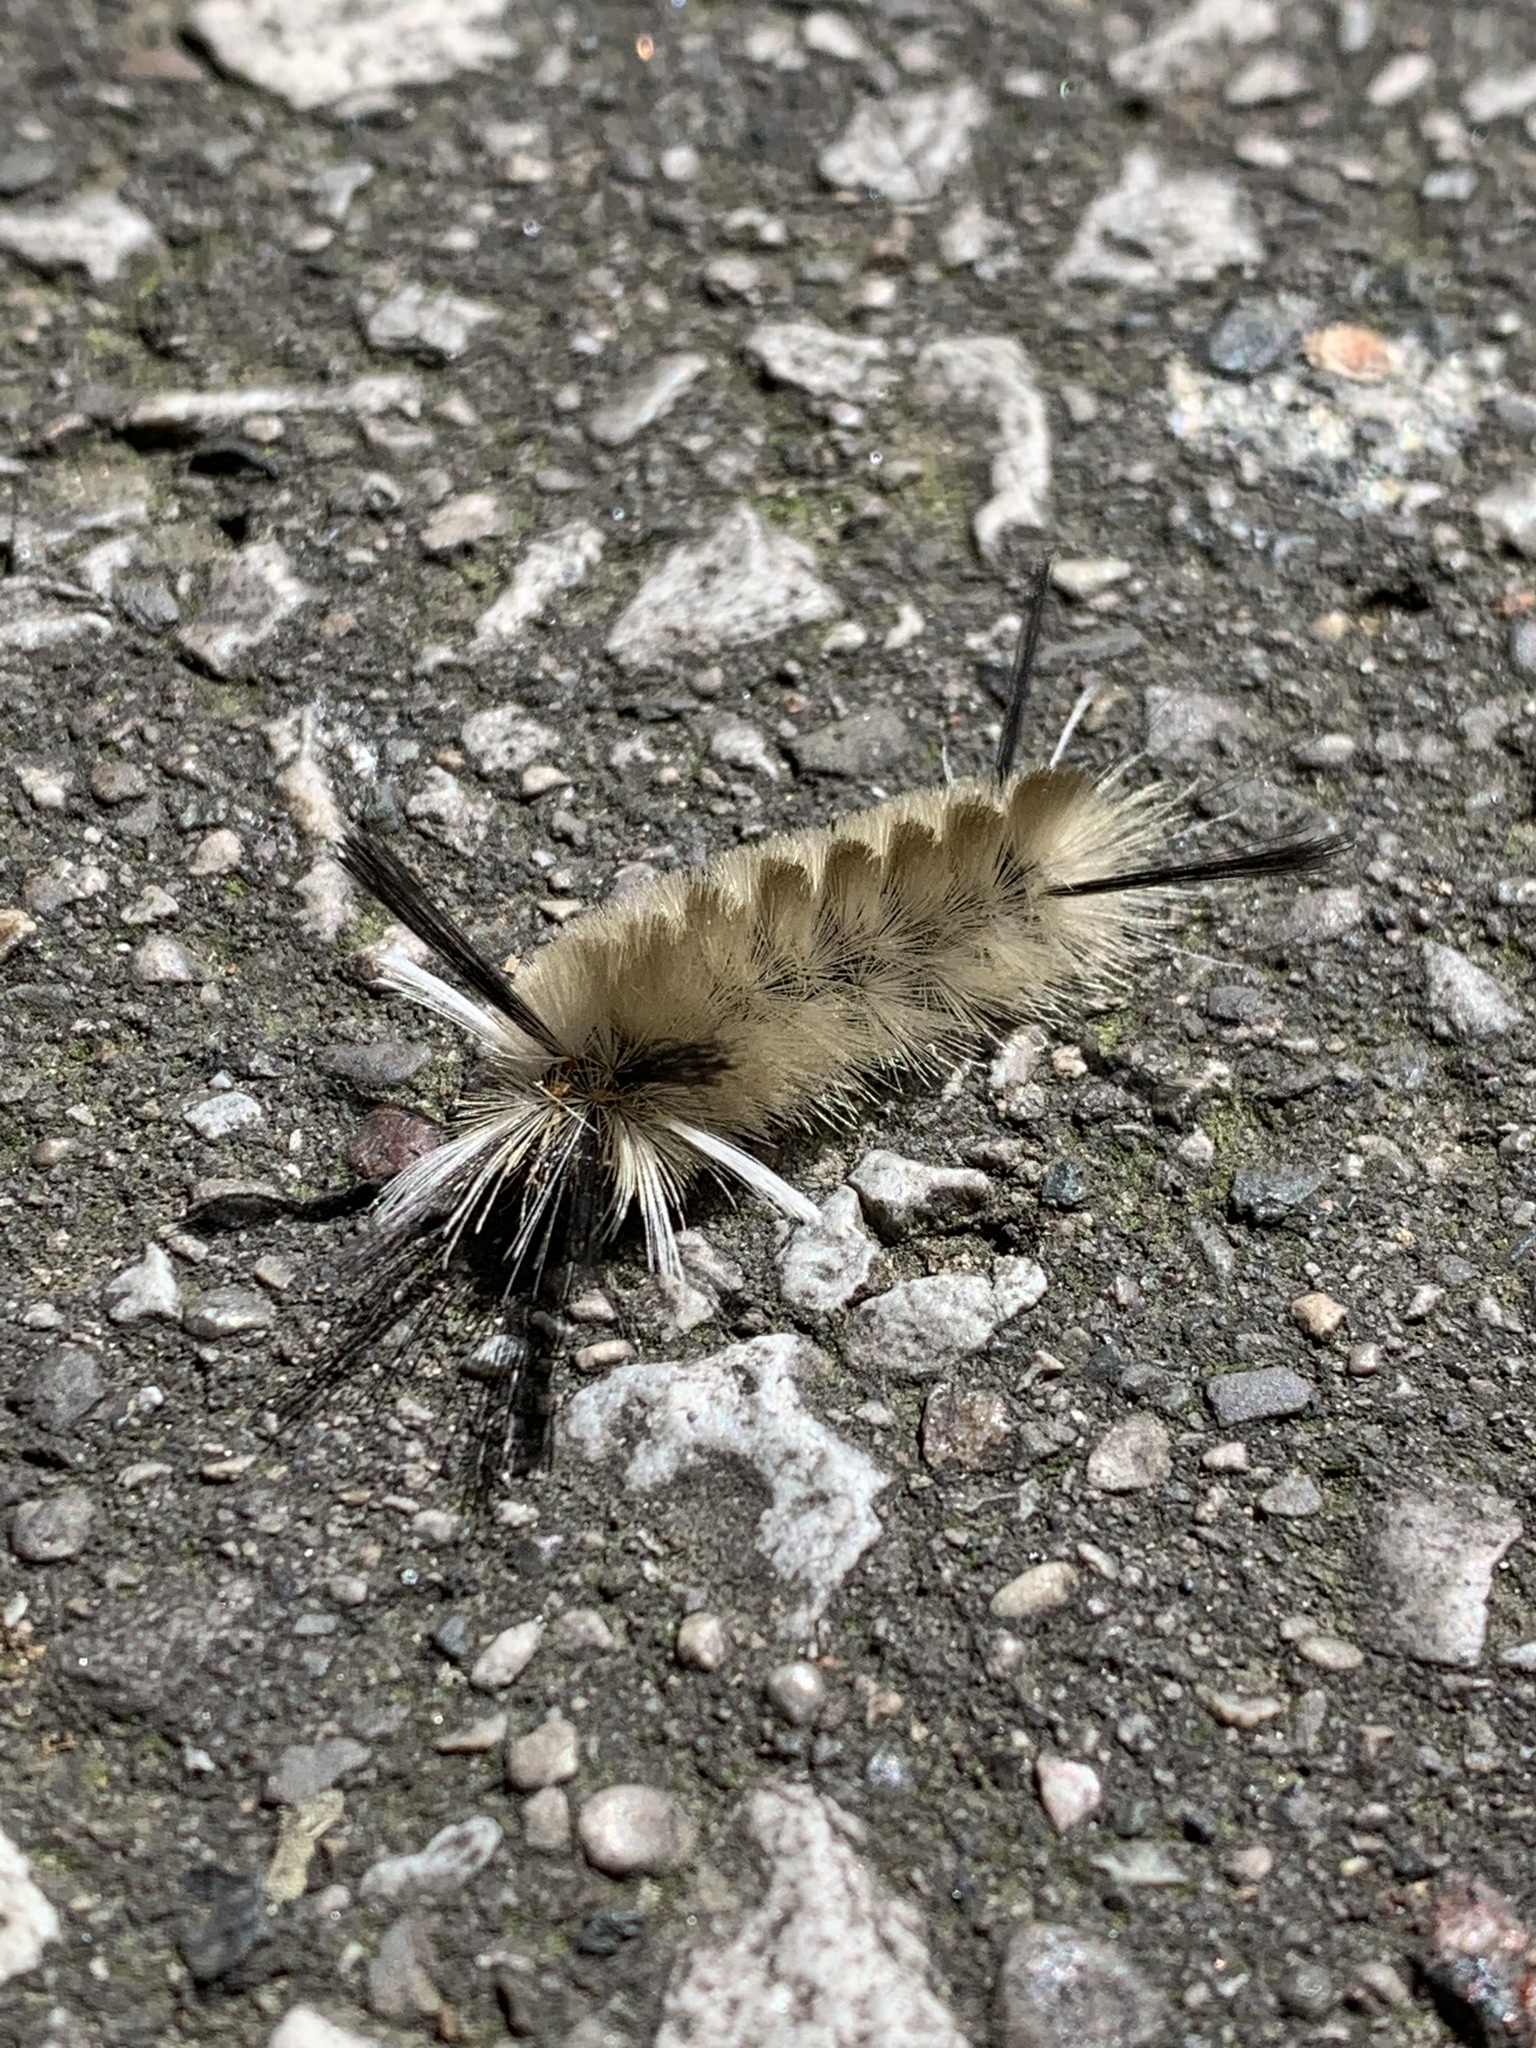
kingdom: Animalia
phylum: Arthropoda
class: Insecta
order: Lepidoptera
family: Erebidae
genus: Halysidota
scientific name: Halysidota tessellaris
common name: Banded tussock moth
